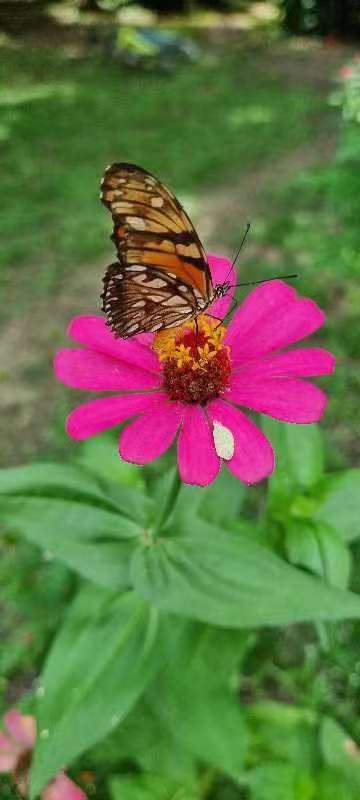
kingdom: Animalia
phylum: Arthropoda
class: Insecta
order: Lepidoptera
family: Nymphalidae
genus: Dione
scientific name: Dione juno
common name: Juno silverspot
